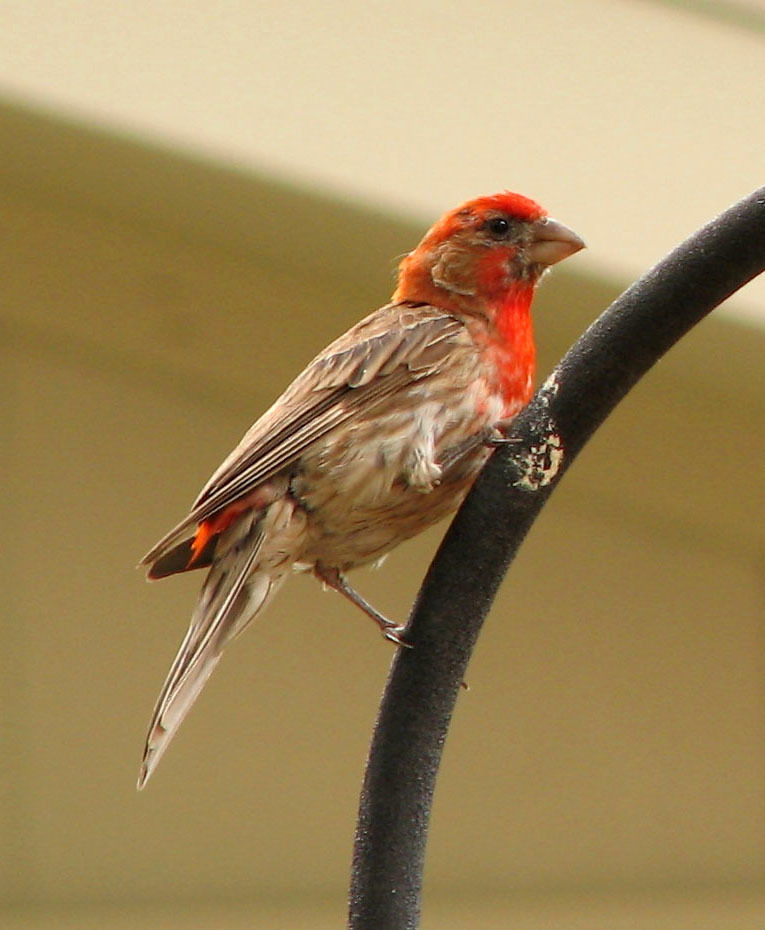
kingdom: Animalia
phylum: Chordata
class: Aves
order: Passeriformes
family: Fringillidae
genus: Haemorhous
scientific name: Haemorhous mexicanus
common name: House finch
